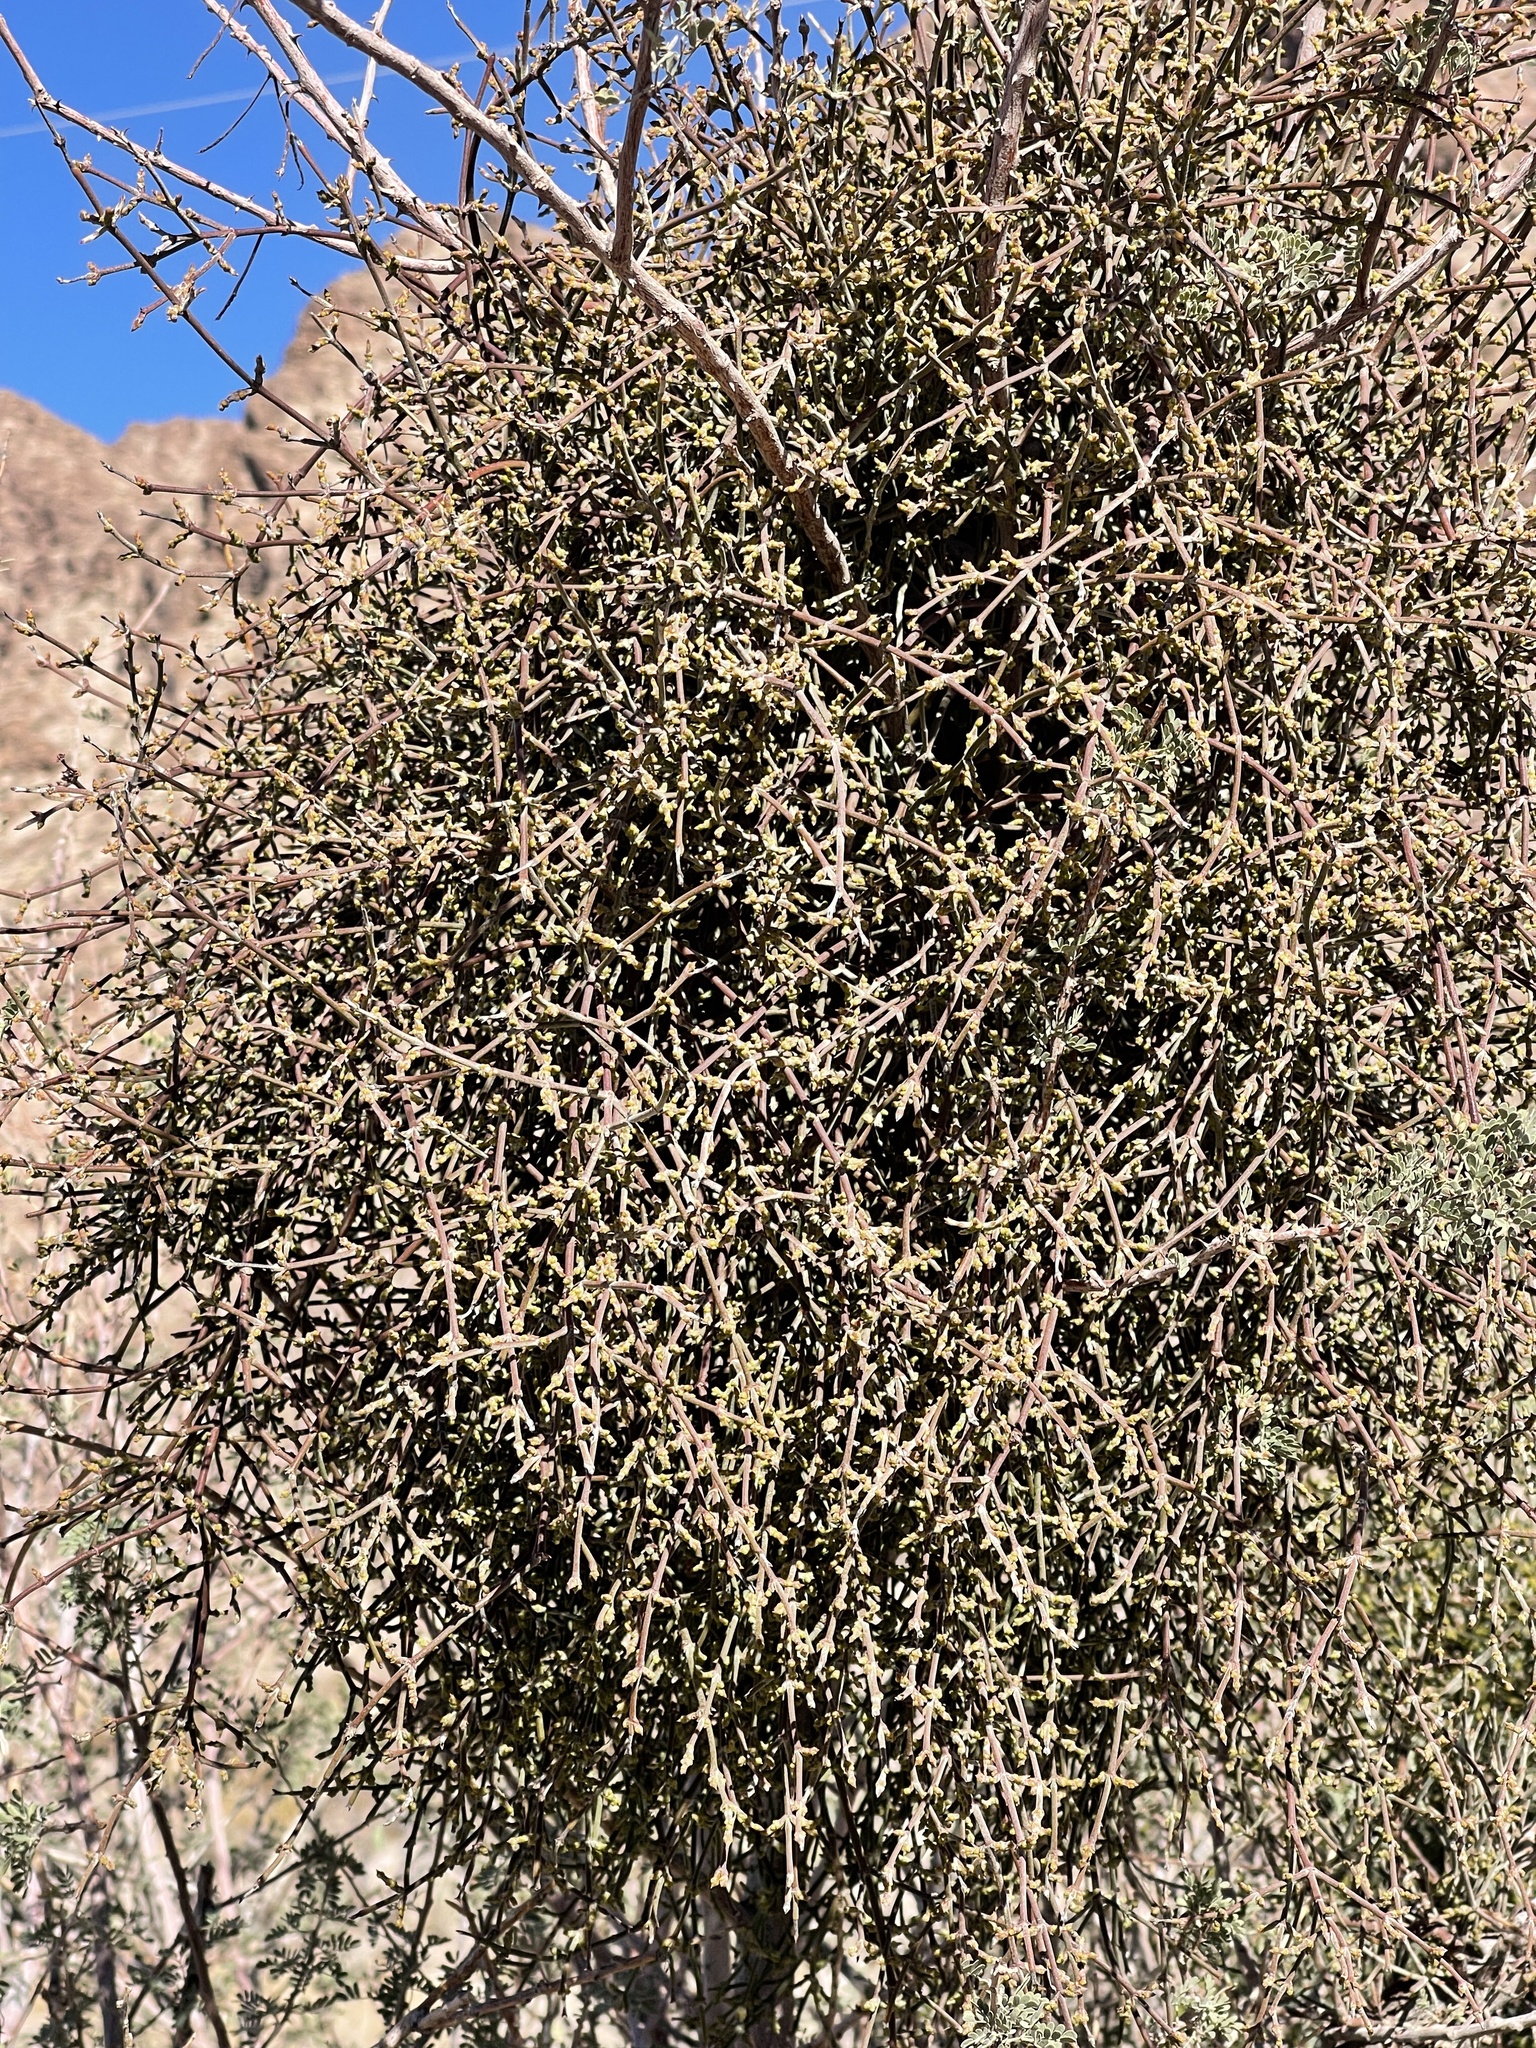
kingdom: Plantae
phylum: Tracheophyta
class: Magnoliopsida
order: Santalales
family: Viscaceae
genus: Phoradendron
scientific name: Phoradendron californicum
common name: Acacia mistletoe
